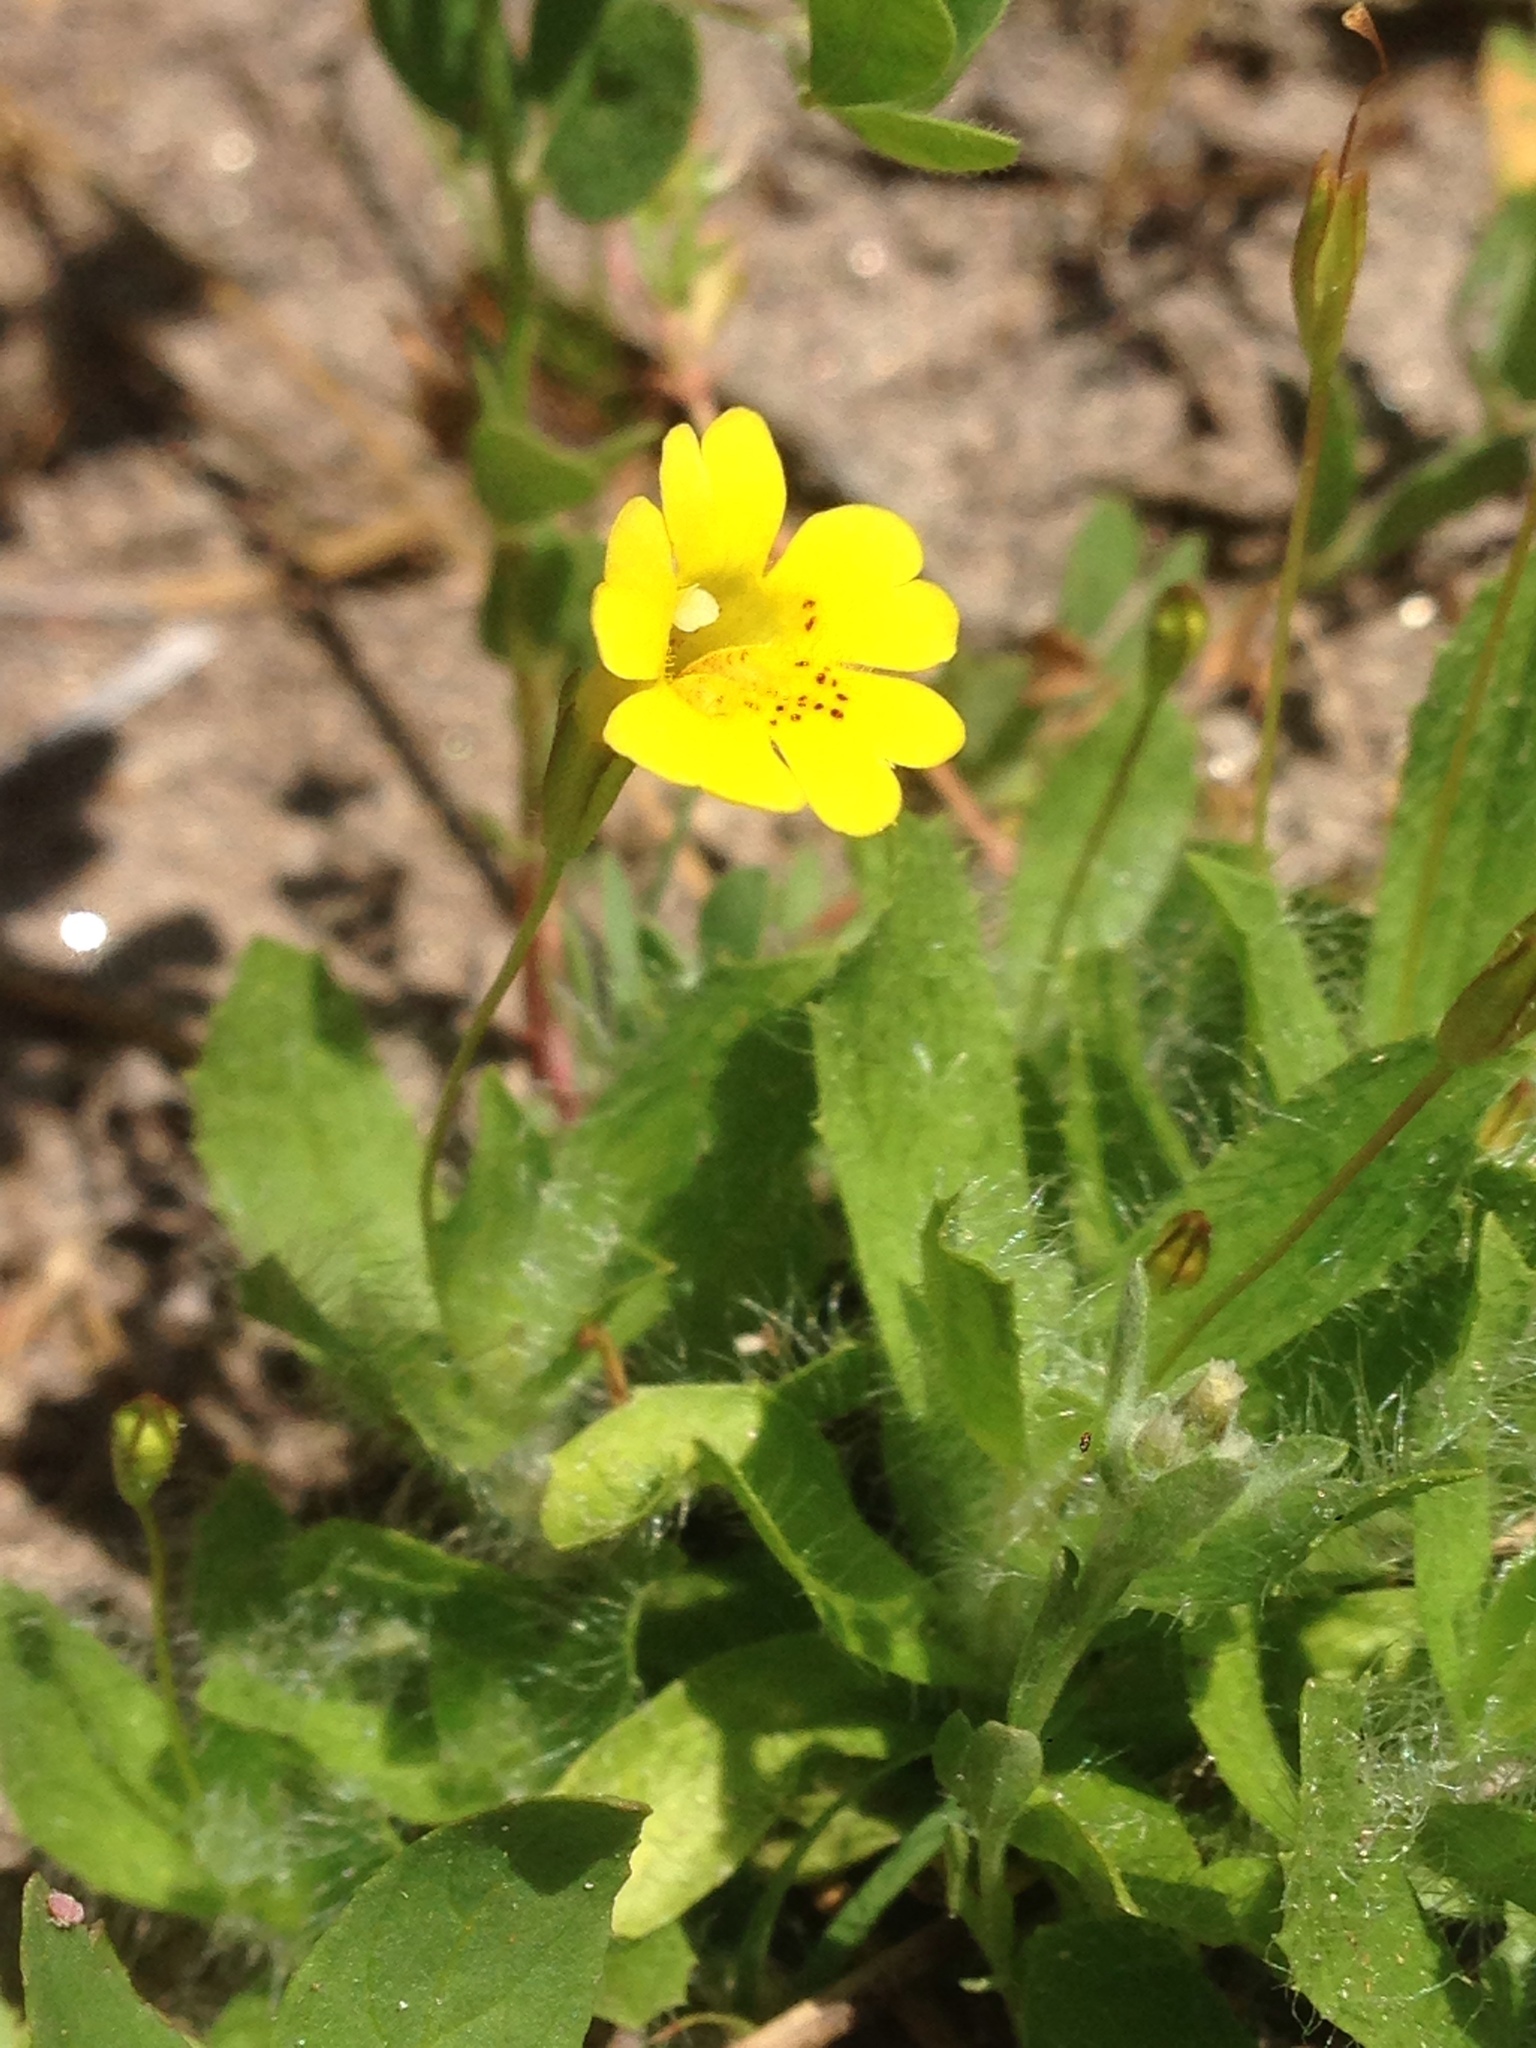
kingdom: Plantae
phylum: Tracheophyta
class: Magnoliopsida
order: Lamiales
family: Phrymaceae
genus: Erythranthe
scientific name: Erythranthe primuloides
